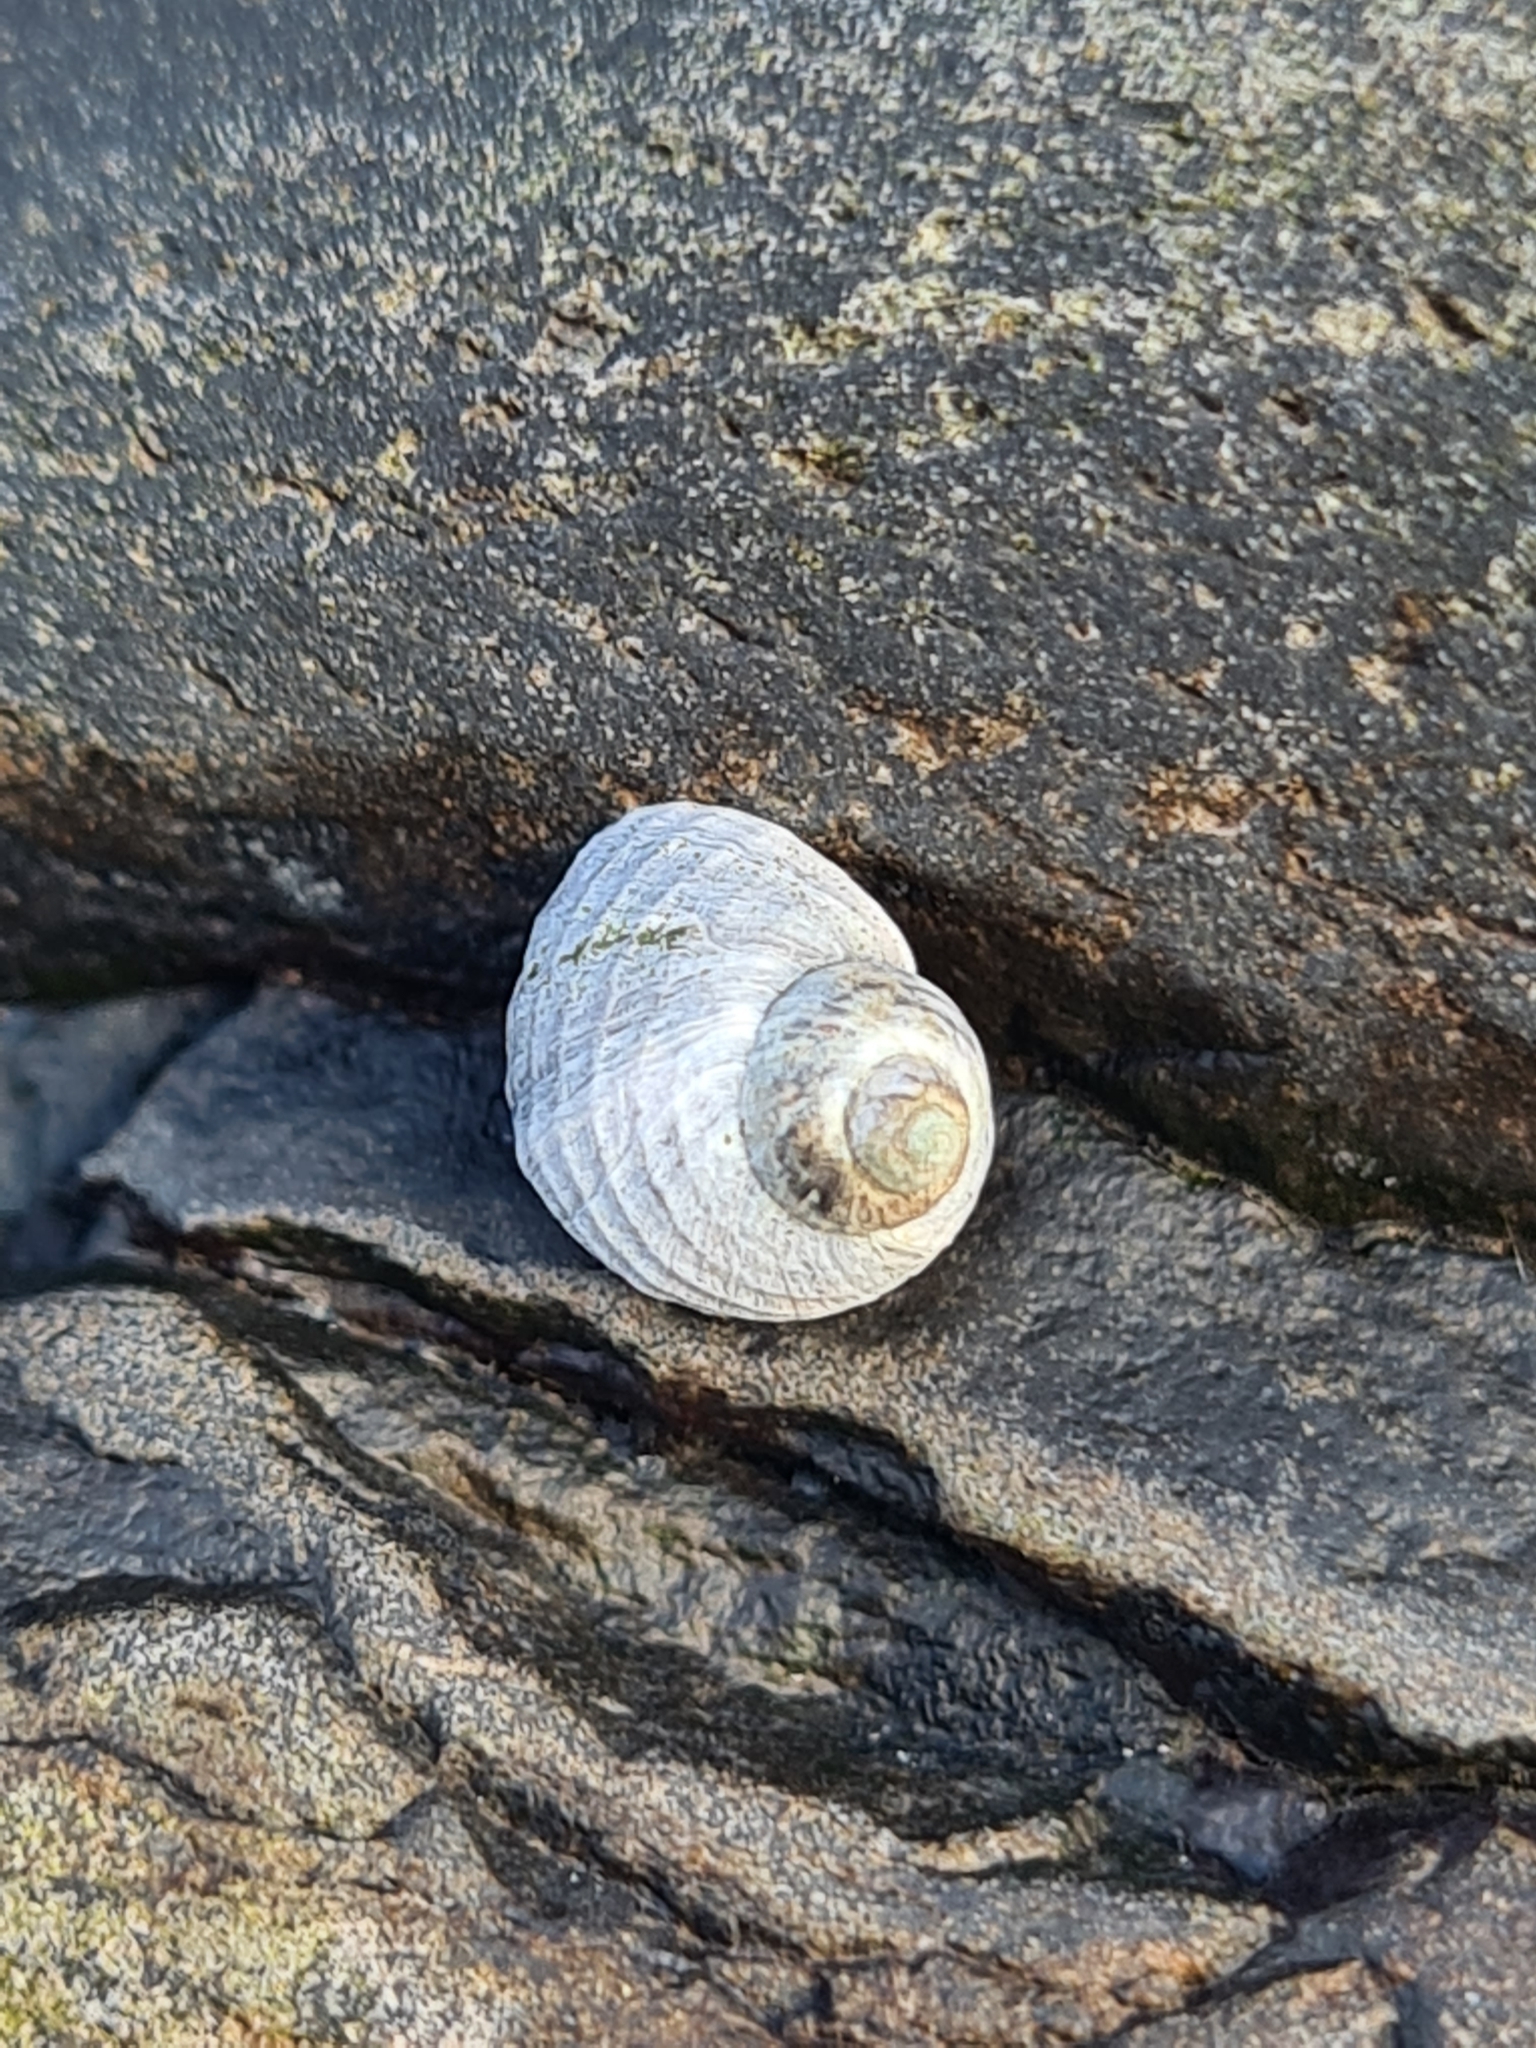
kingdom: Animalia
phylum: Mollusca
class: Gastropoda
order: Littorinimorpha
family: Littorinidae
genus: Littorina
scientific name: Littorina saxatilis
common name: Black-lined periwinkle
